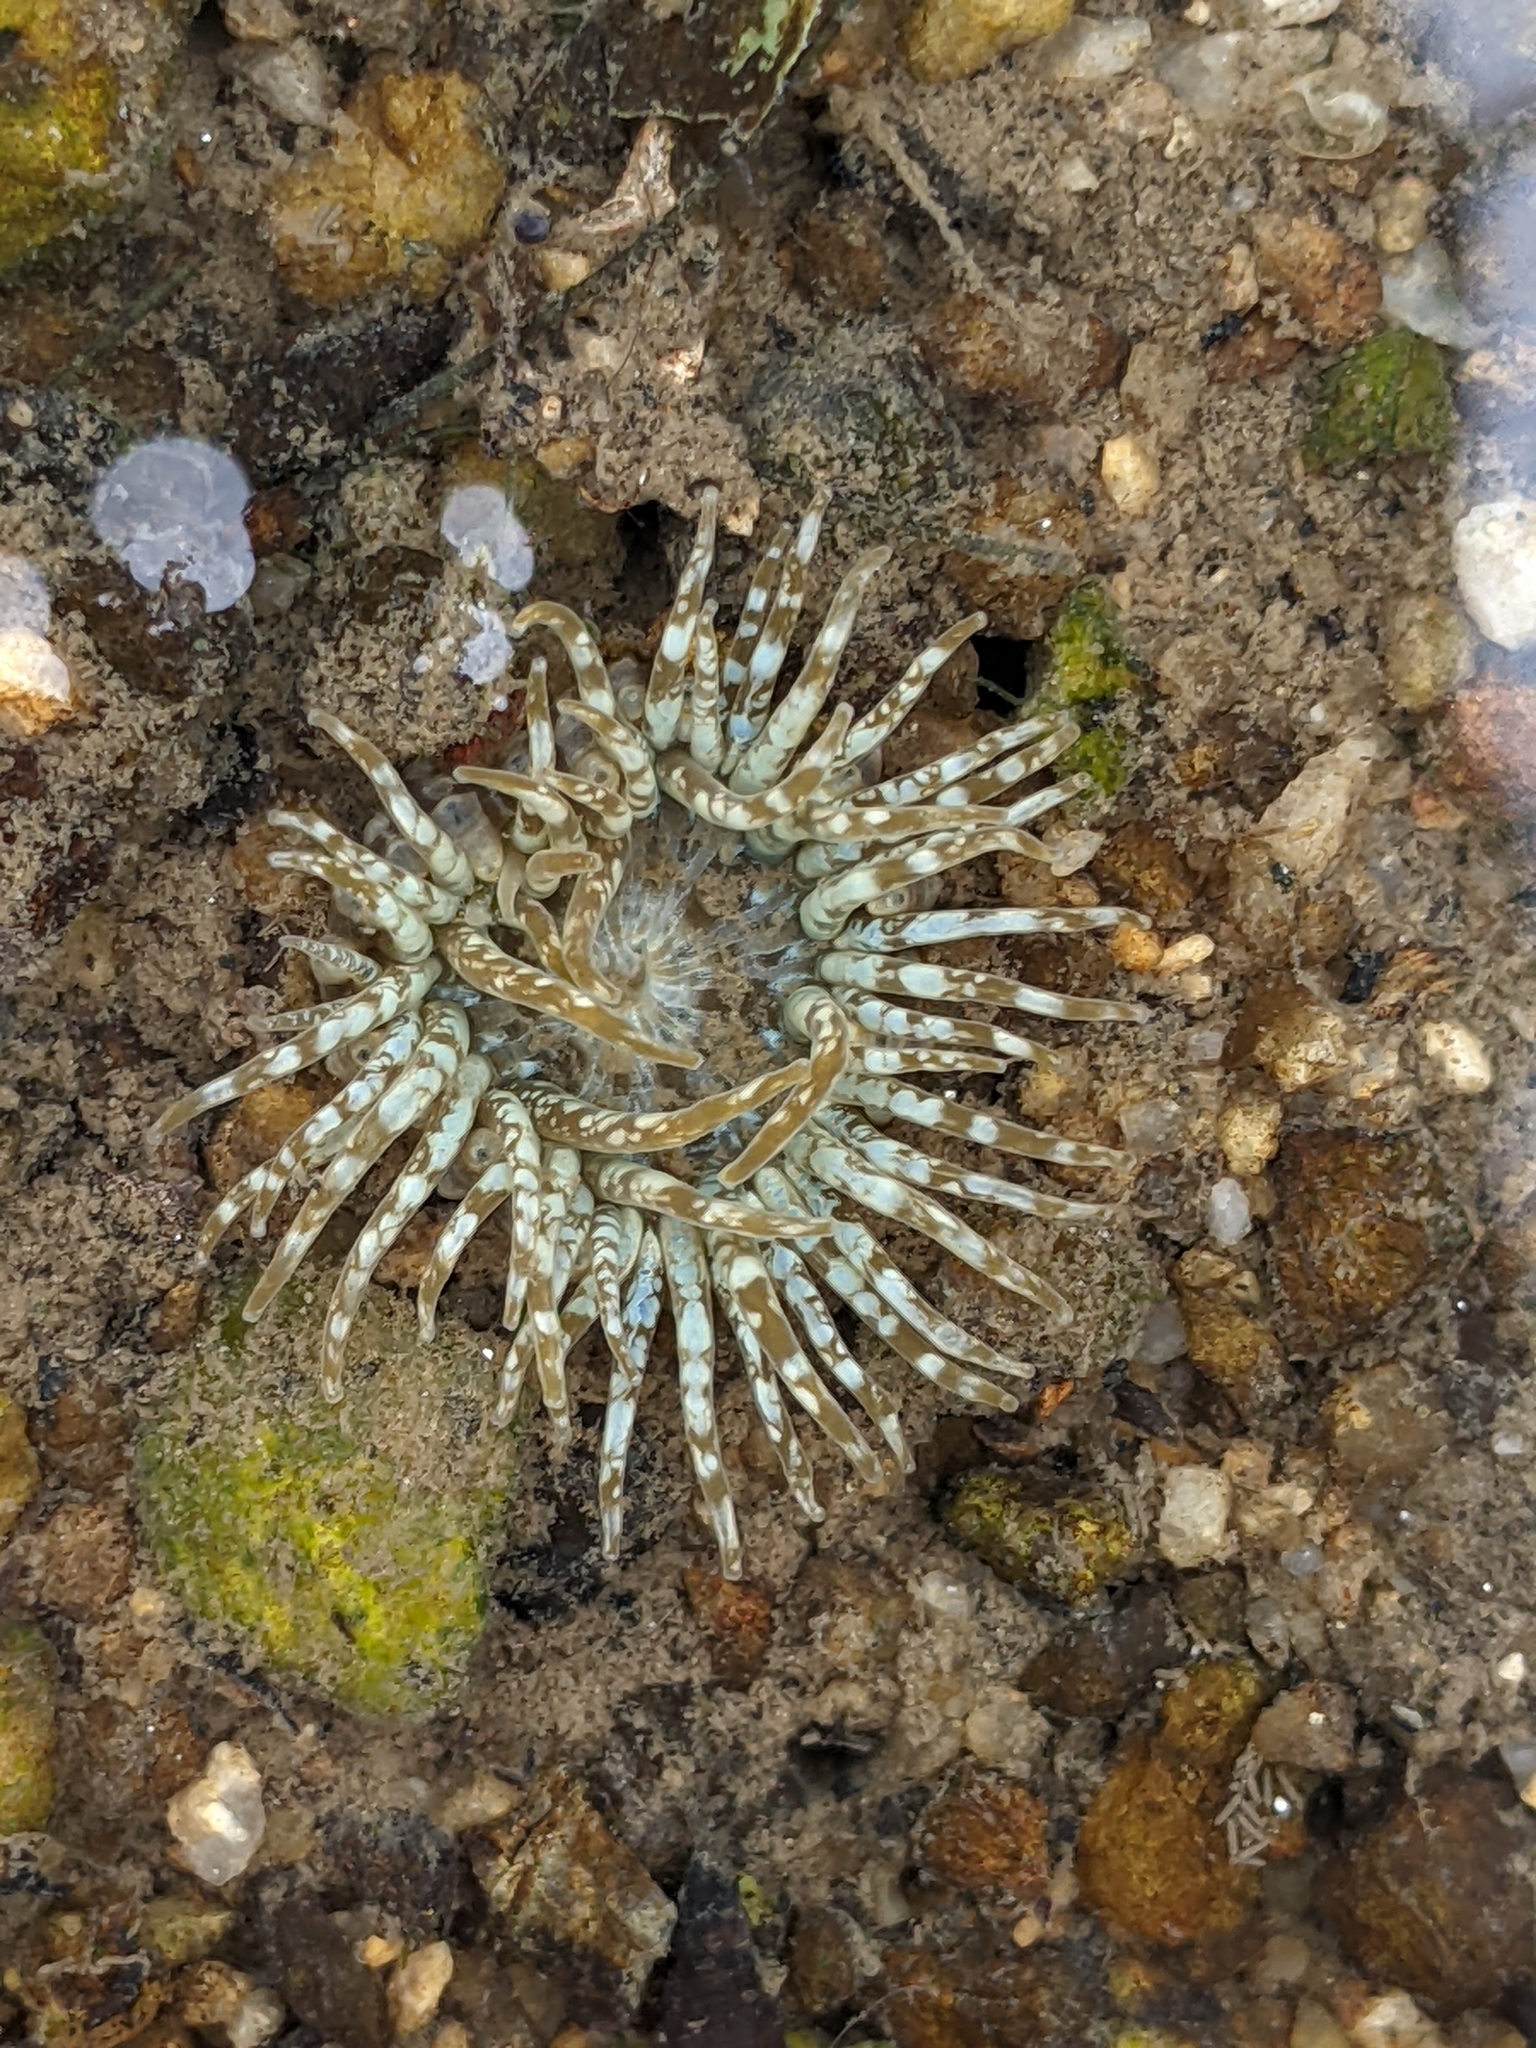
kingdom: Animalia
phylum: Cnidaria
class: Anthozoa
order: Actiniaria
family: Actiniidae
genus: Anthopleura
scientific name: Anthopleura artemisia
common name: Buried sea anemone
